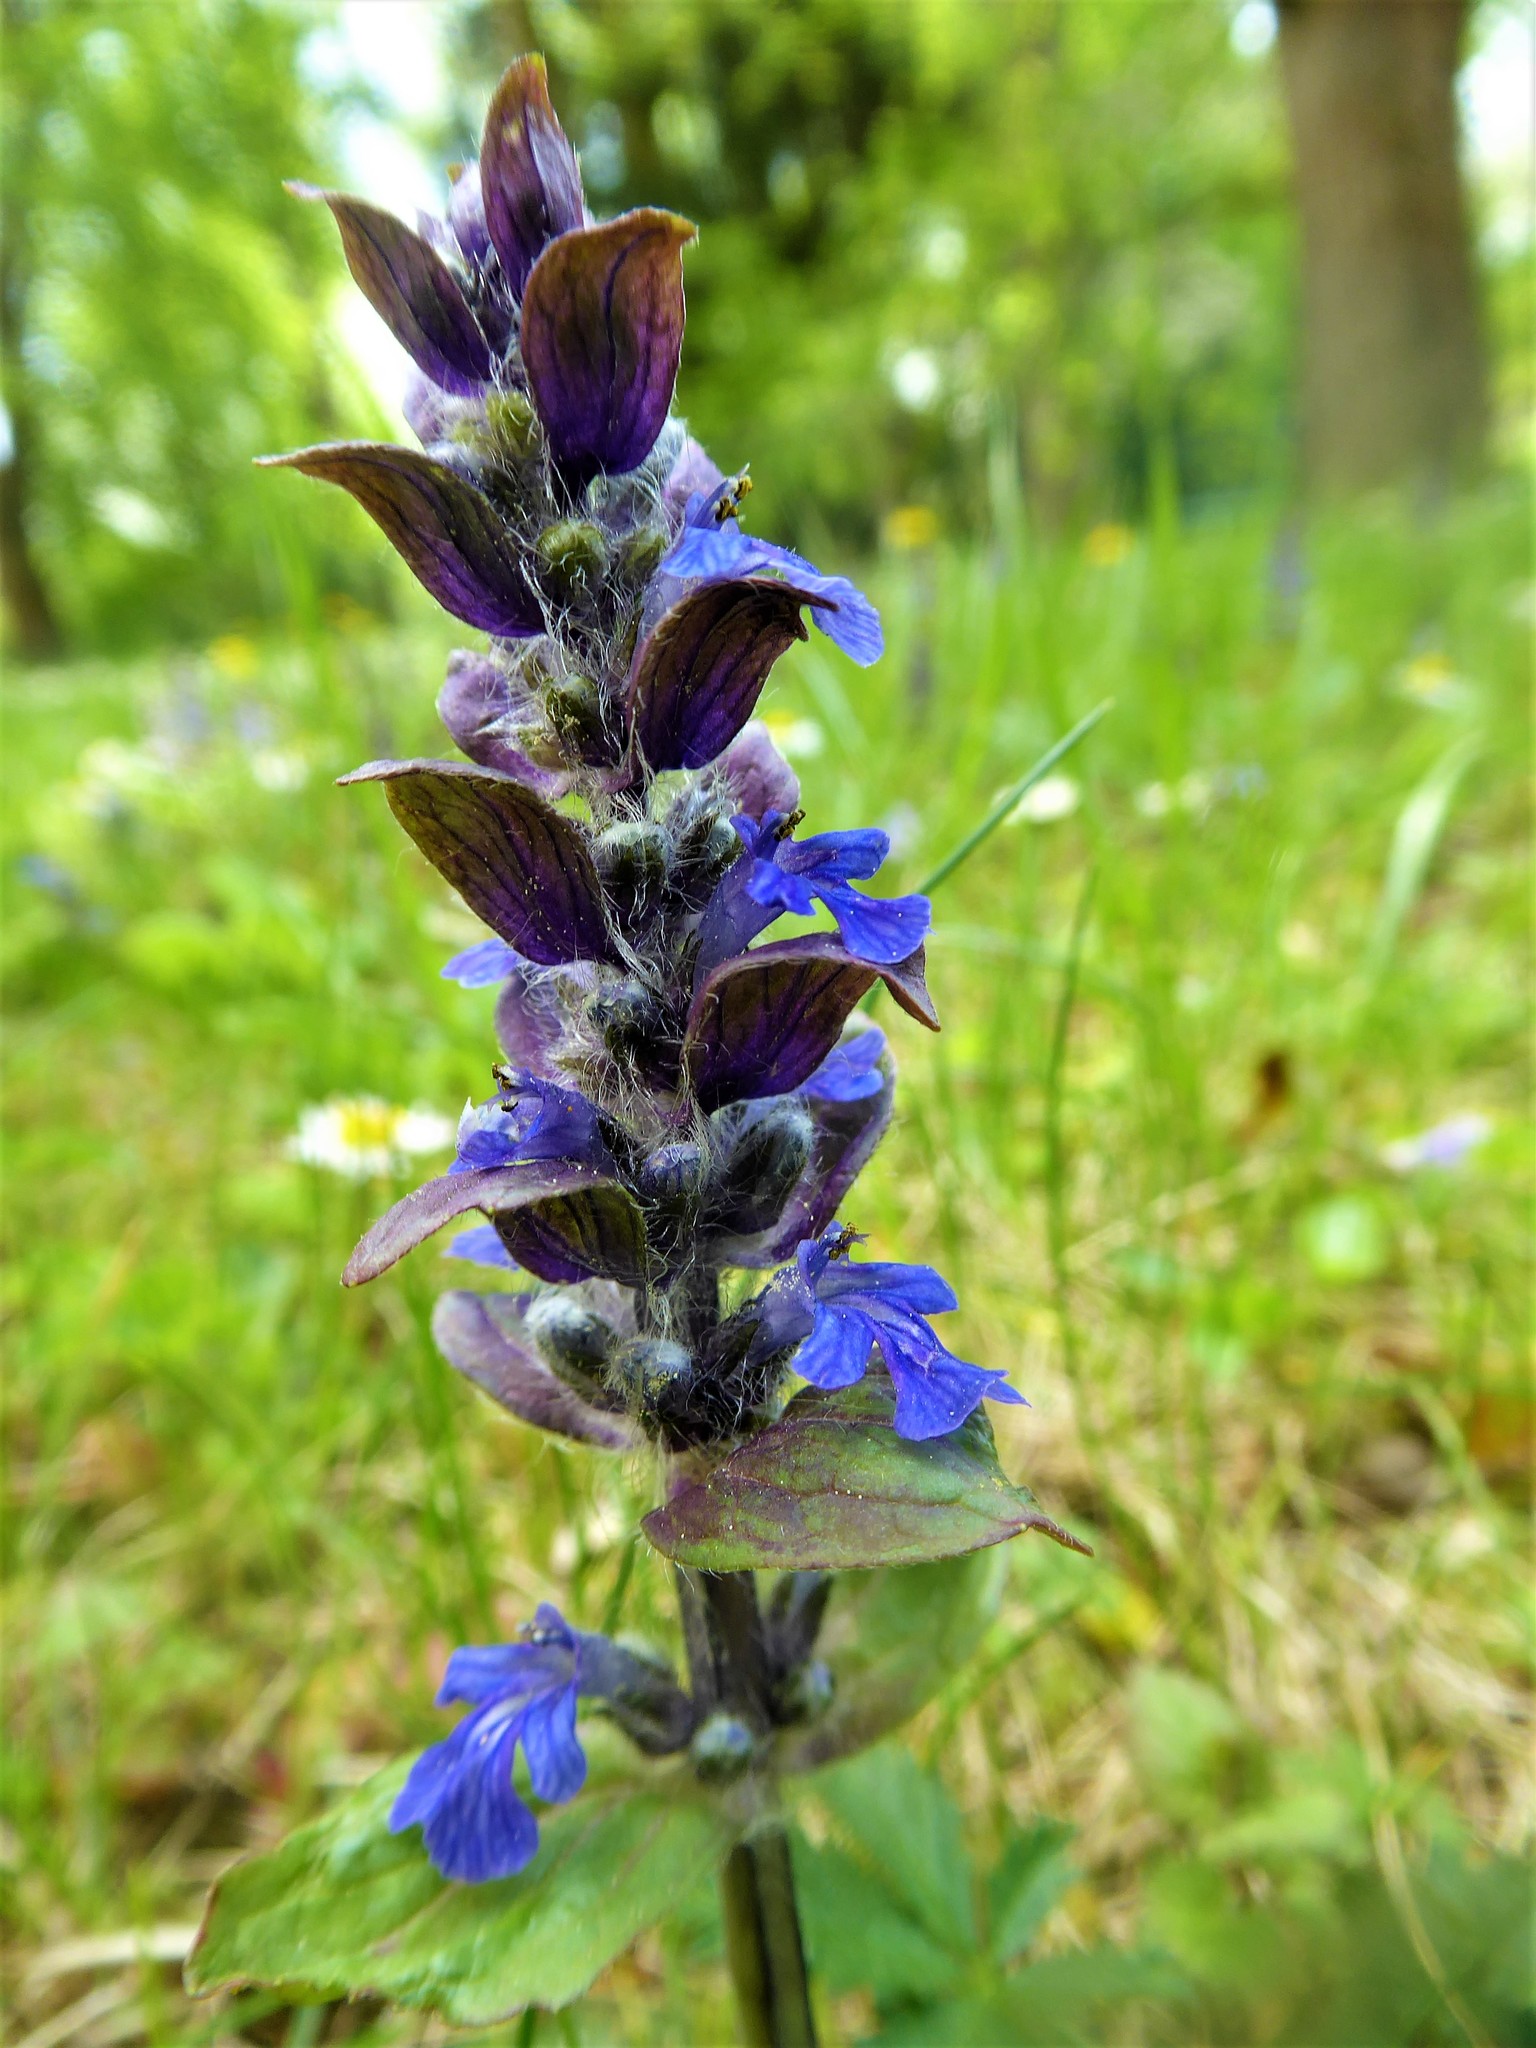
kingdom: Plantae
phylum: Tracheophyta
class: Magnoliopsida
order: Lamiales
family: Lamiaceae
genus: Ajuga
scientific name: Ajuga reptans
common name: Bugle
